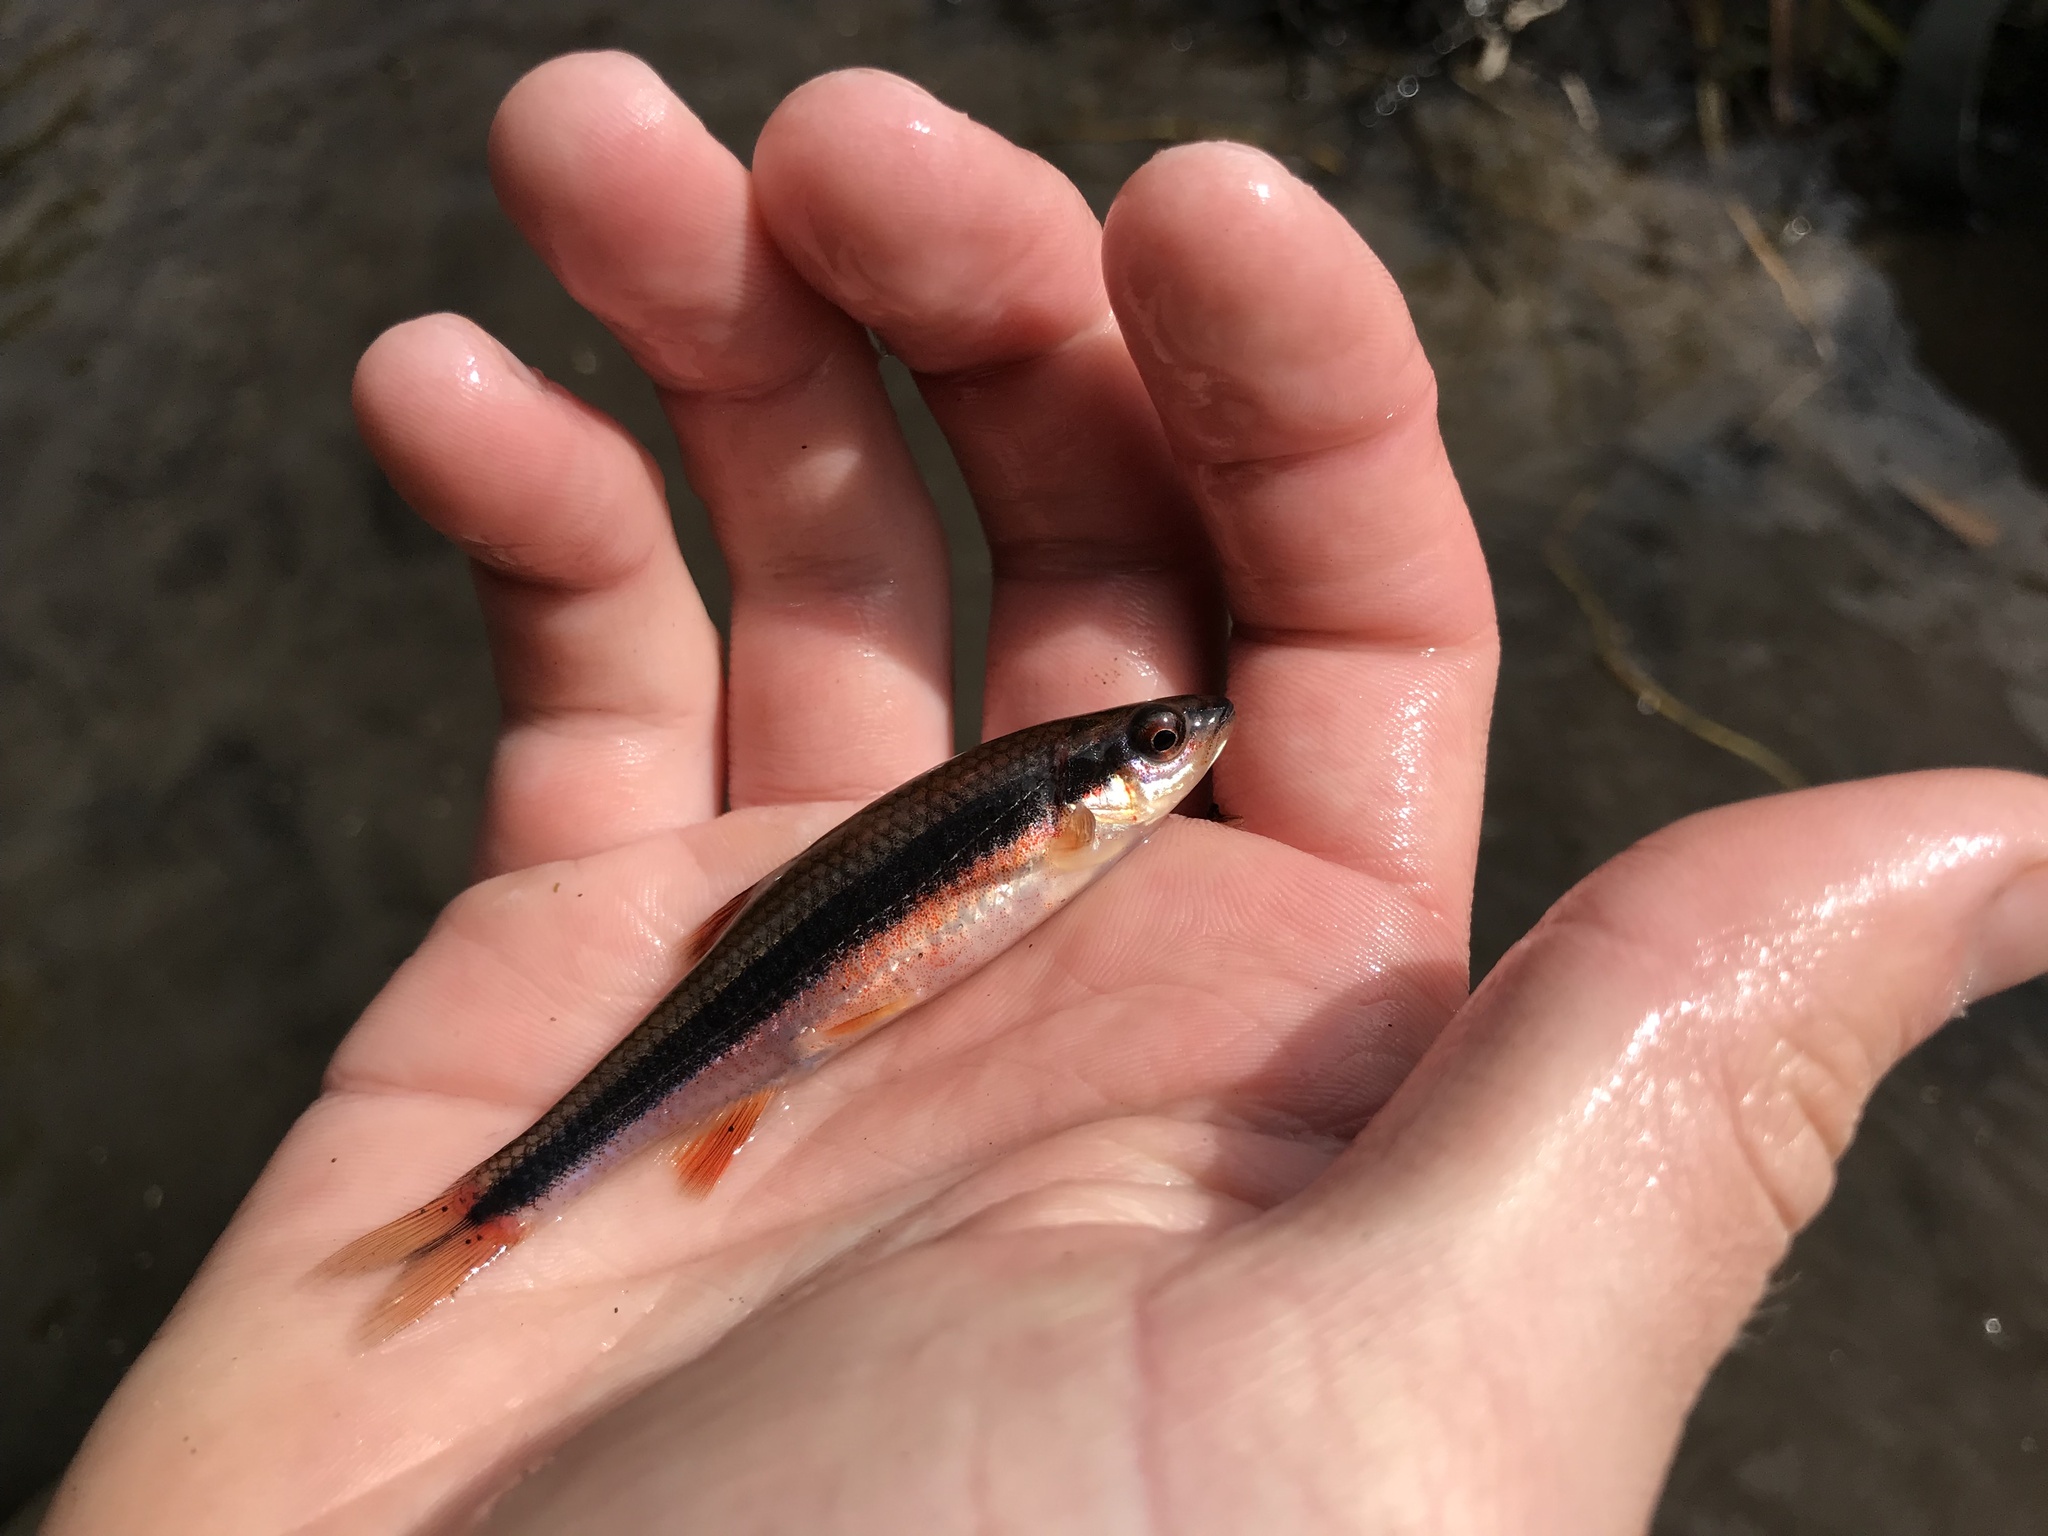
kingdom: Animalia
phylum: Chordata
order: Cypriniformes
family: Cyprinidae
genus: Notropis
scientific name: Notropis lutipinnis
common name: Yellowfin shiner
